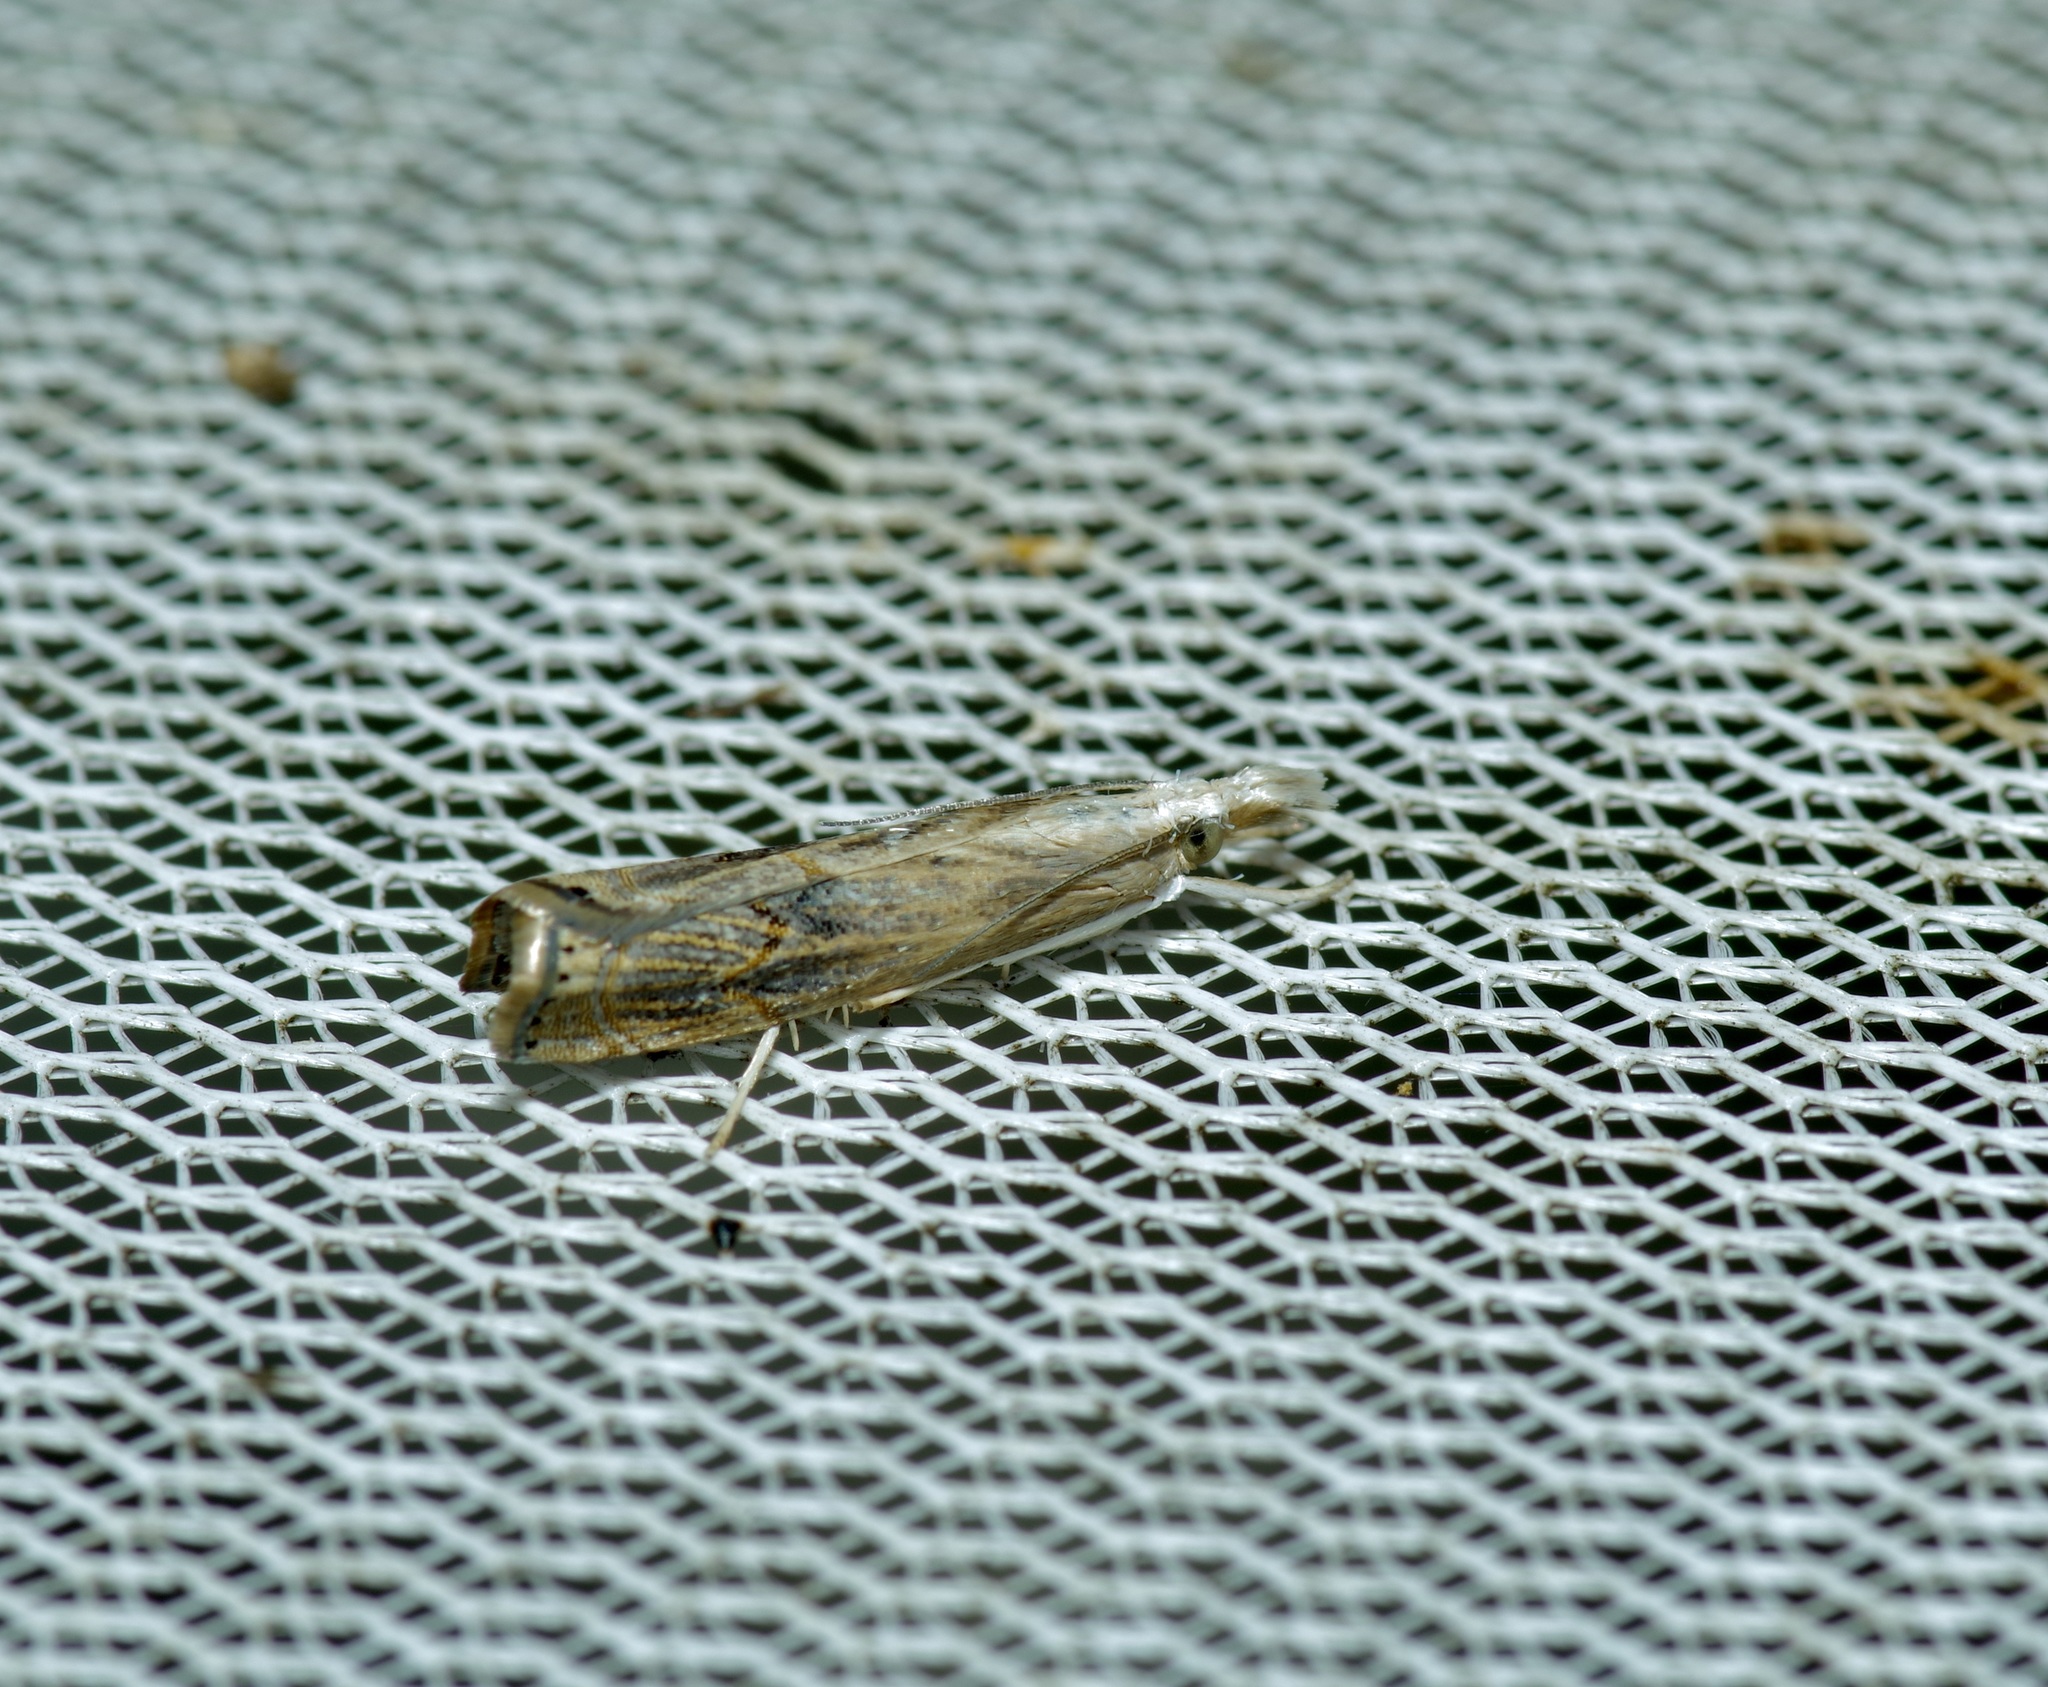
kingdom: Animalia
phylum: Arthropoda
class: Insecta
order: Lepidoptera
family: Crambidae
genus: Parapediasia
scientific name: Parapediasia teterellus
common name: Bluegrass webworm moth
